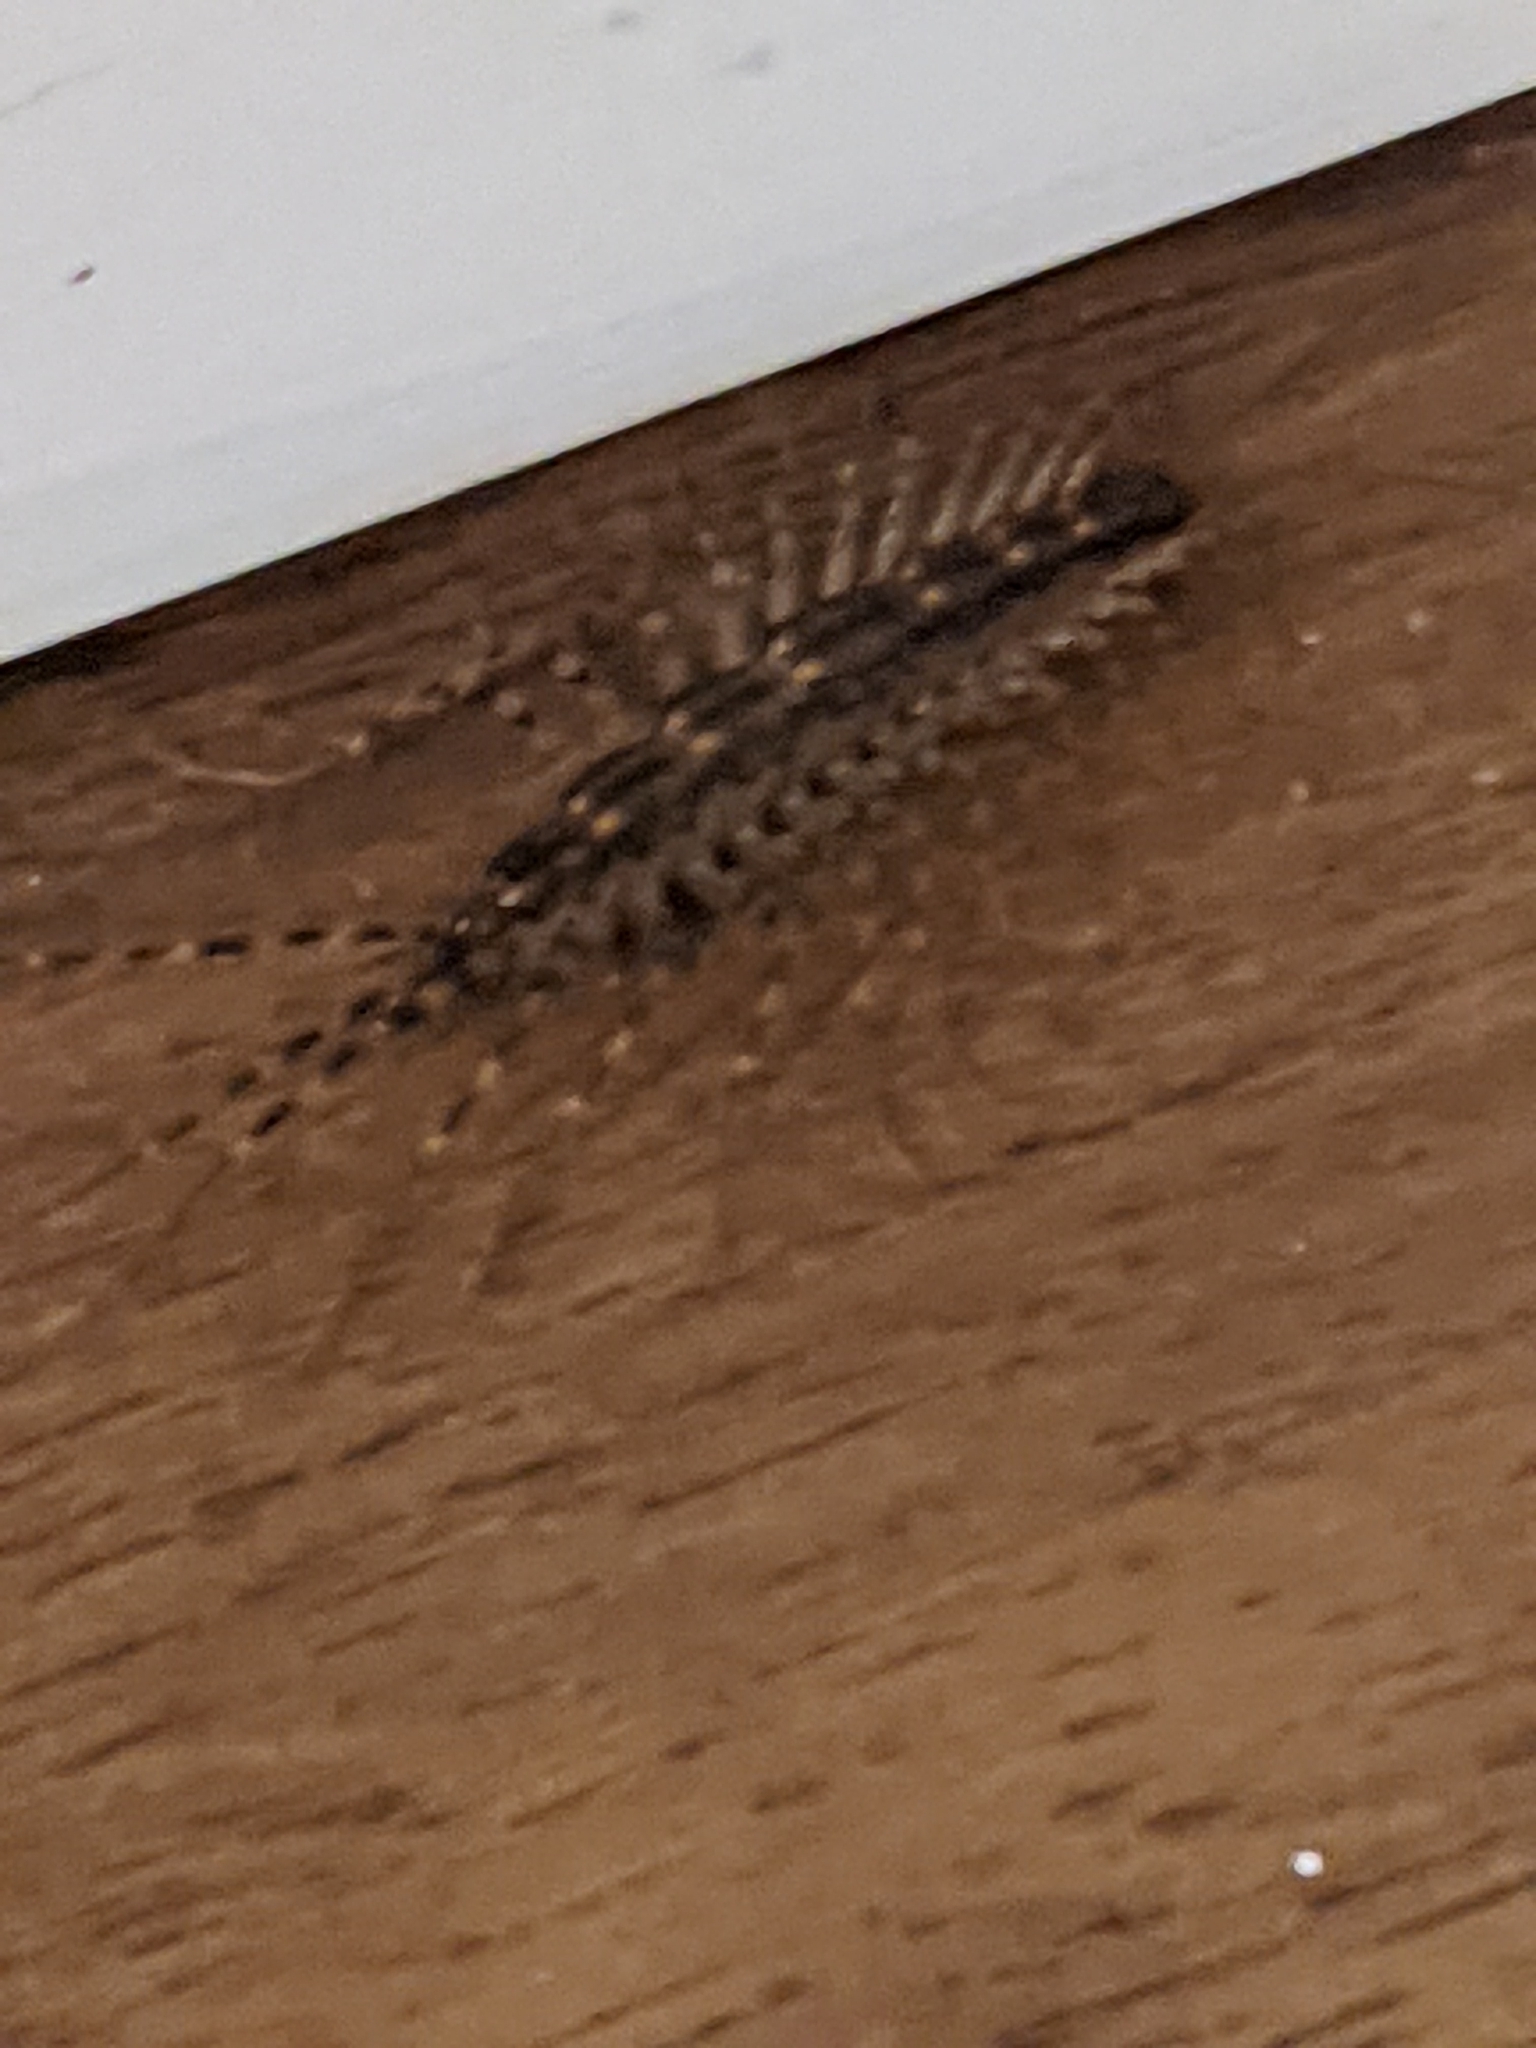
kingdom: Animalia
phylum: Arthropoda
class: Chilopoda
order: Scutigeromorpha
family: Scutigeridae
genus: Scutigera
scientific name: Scutigera coleoptrata
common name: House centipede
